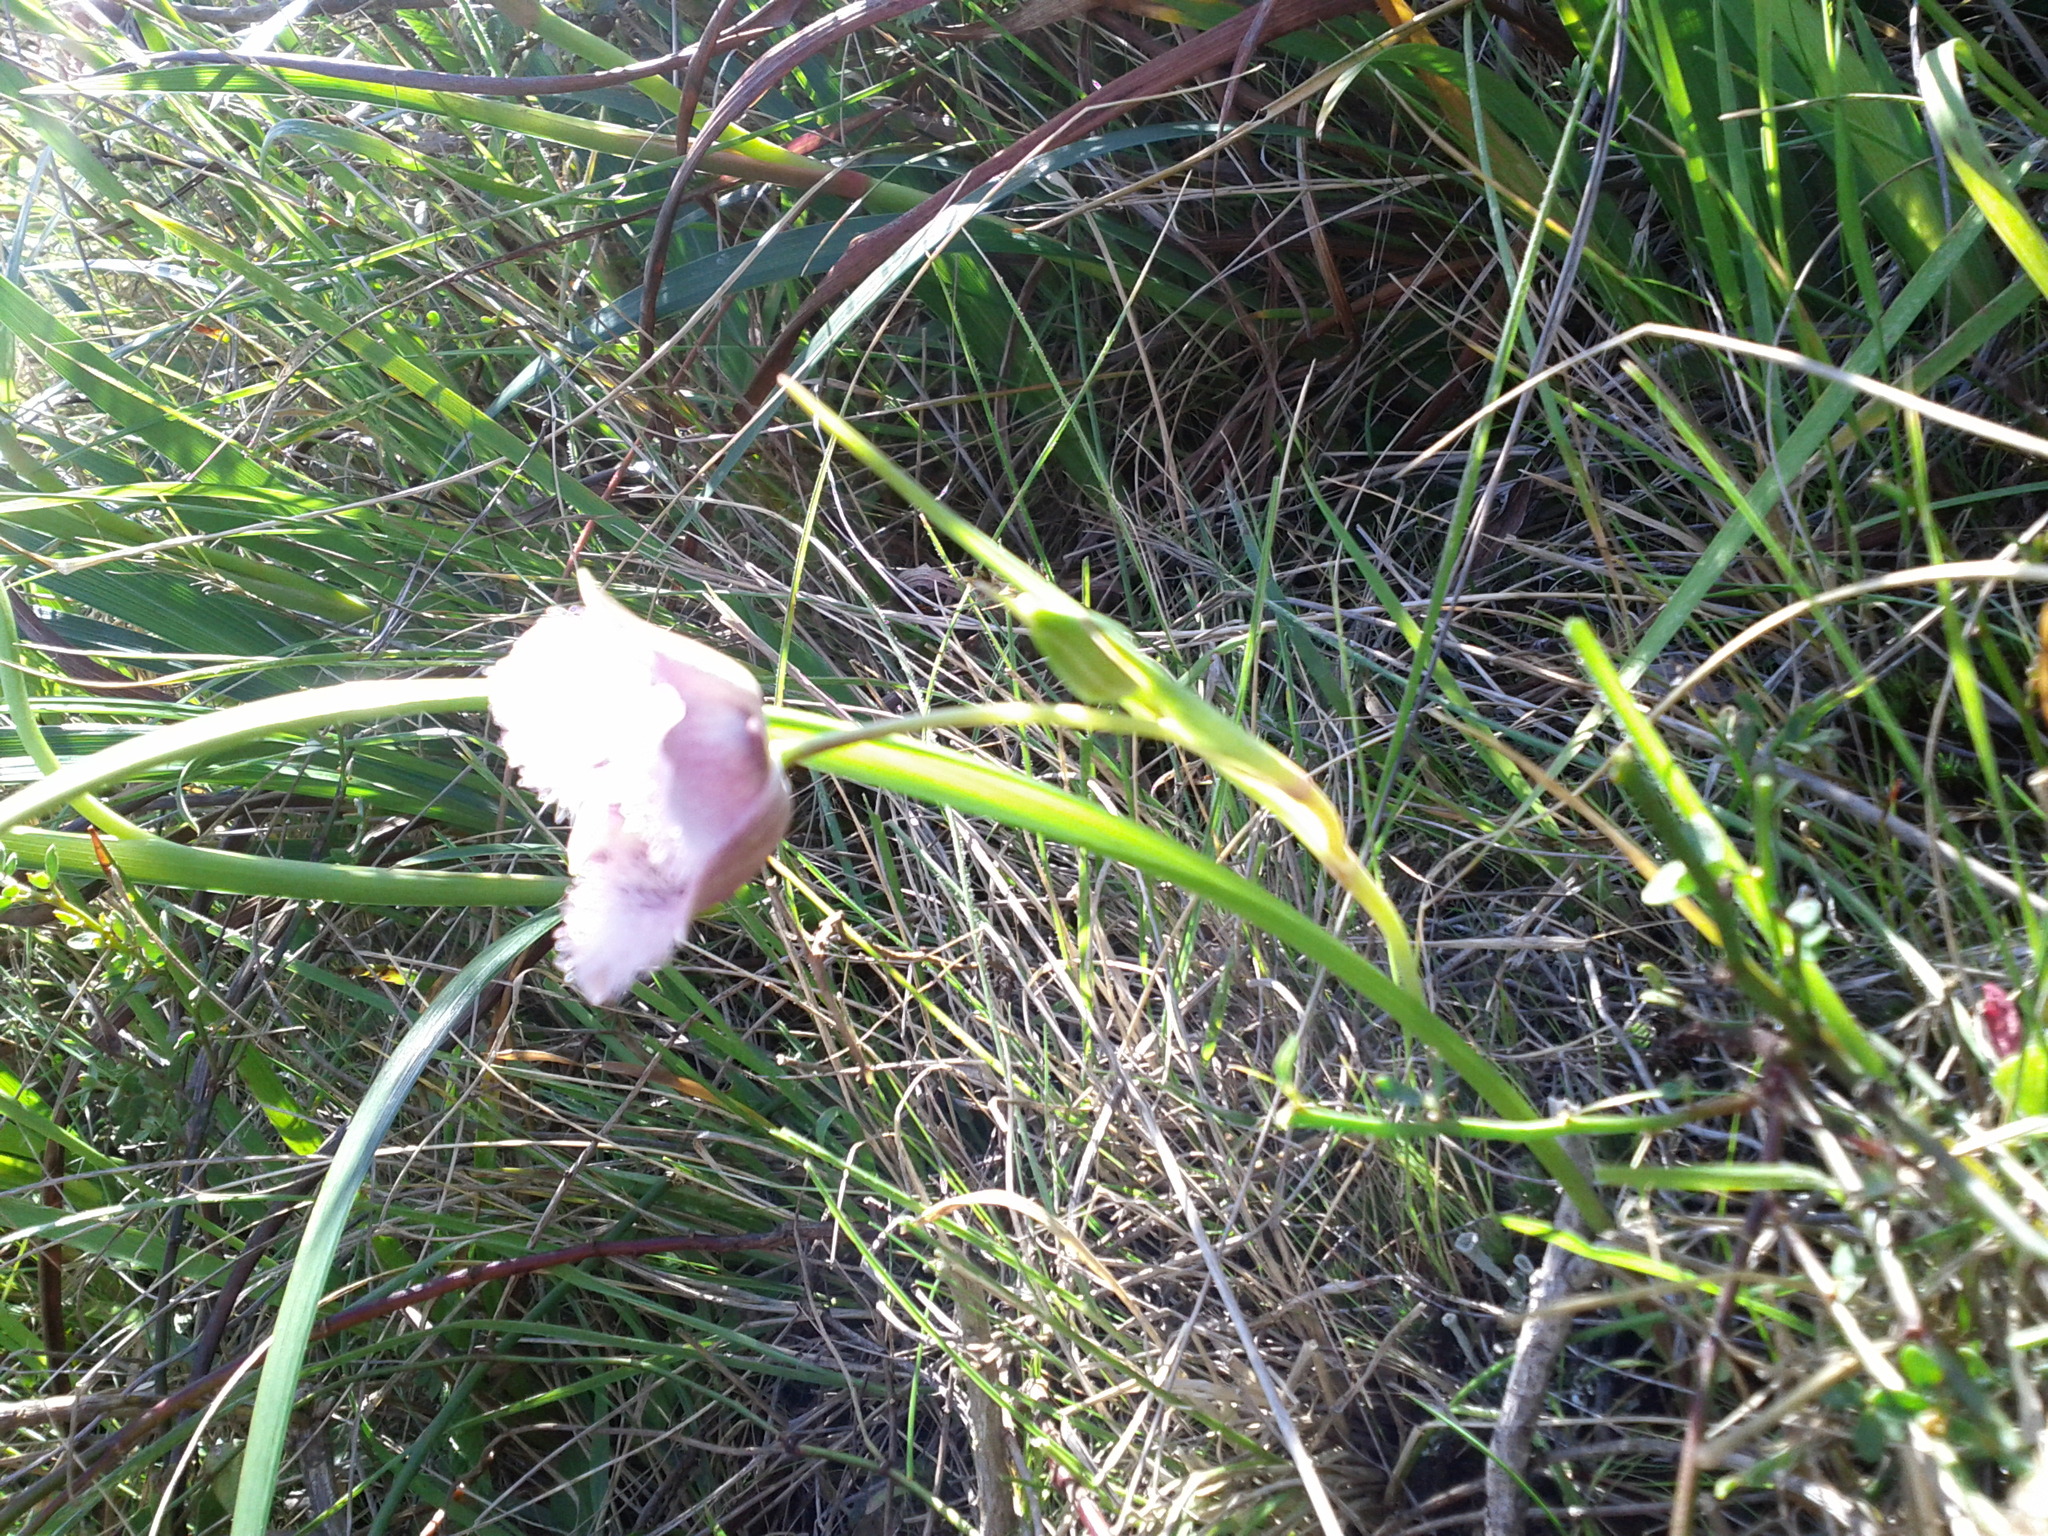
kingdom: Plantae
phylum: Tracheophyta
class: Liliopsida
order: Liliales
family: Liliaceae
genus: Calochortus
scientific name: Calochortus tolmiei
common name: Pussy-ears
